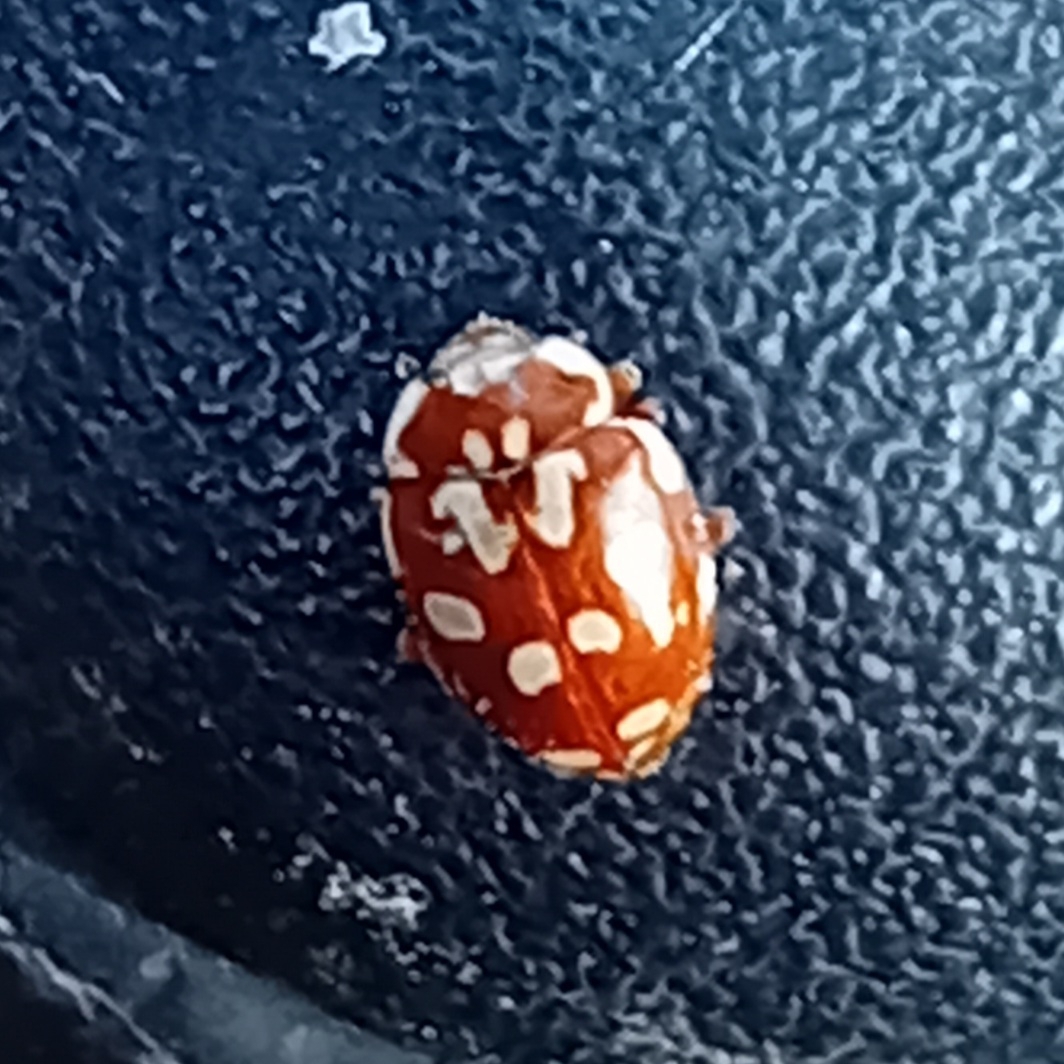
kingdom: Animalia
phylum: Arthropoda
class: Insecta
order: Coleoptera
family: Coccinellidae
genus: Myrrha
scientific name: Myrrha octodecimguttata
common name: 18-spot ladybird
